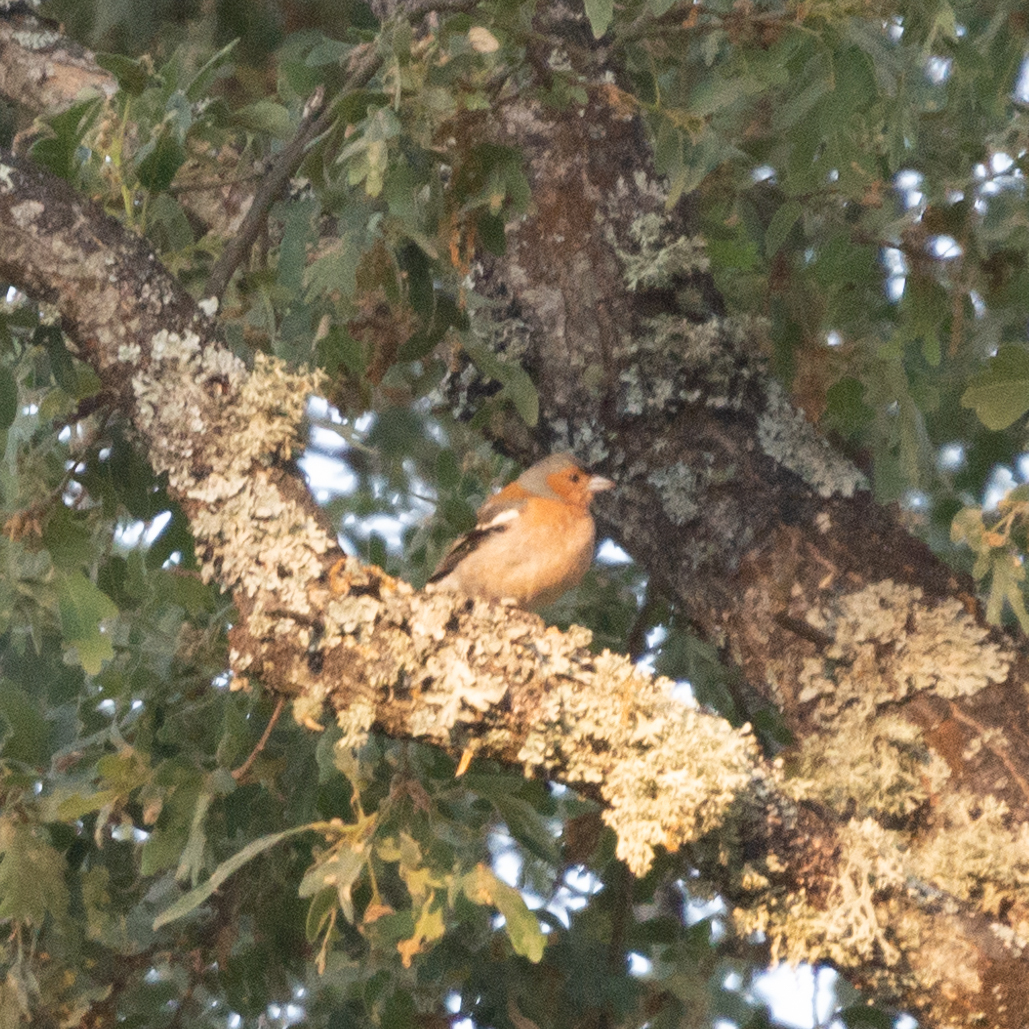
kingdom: Animalia
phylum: Chordata
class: Aves
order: Passeriformes
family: Fringillidae
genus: Fringilla
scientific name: Fringilla coelebs
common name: Common chaffinch
